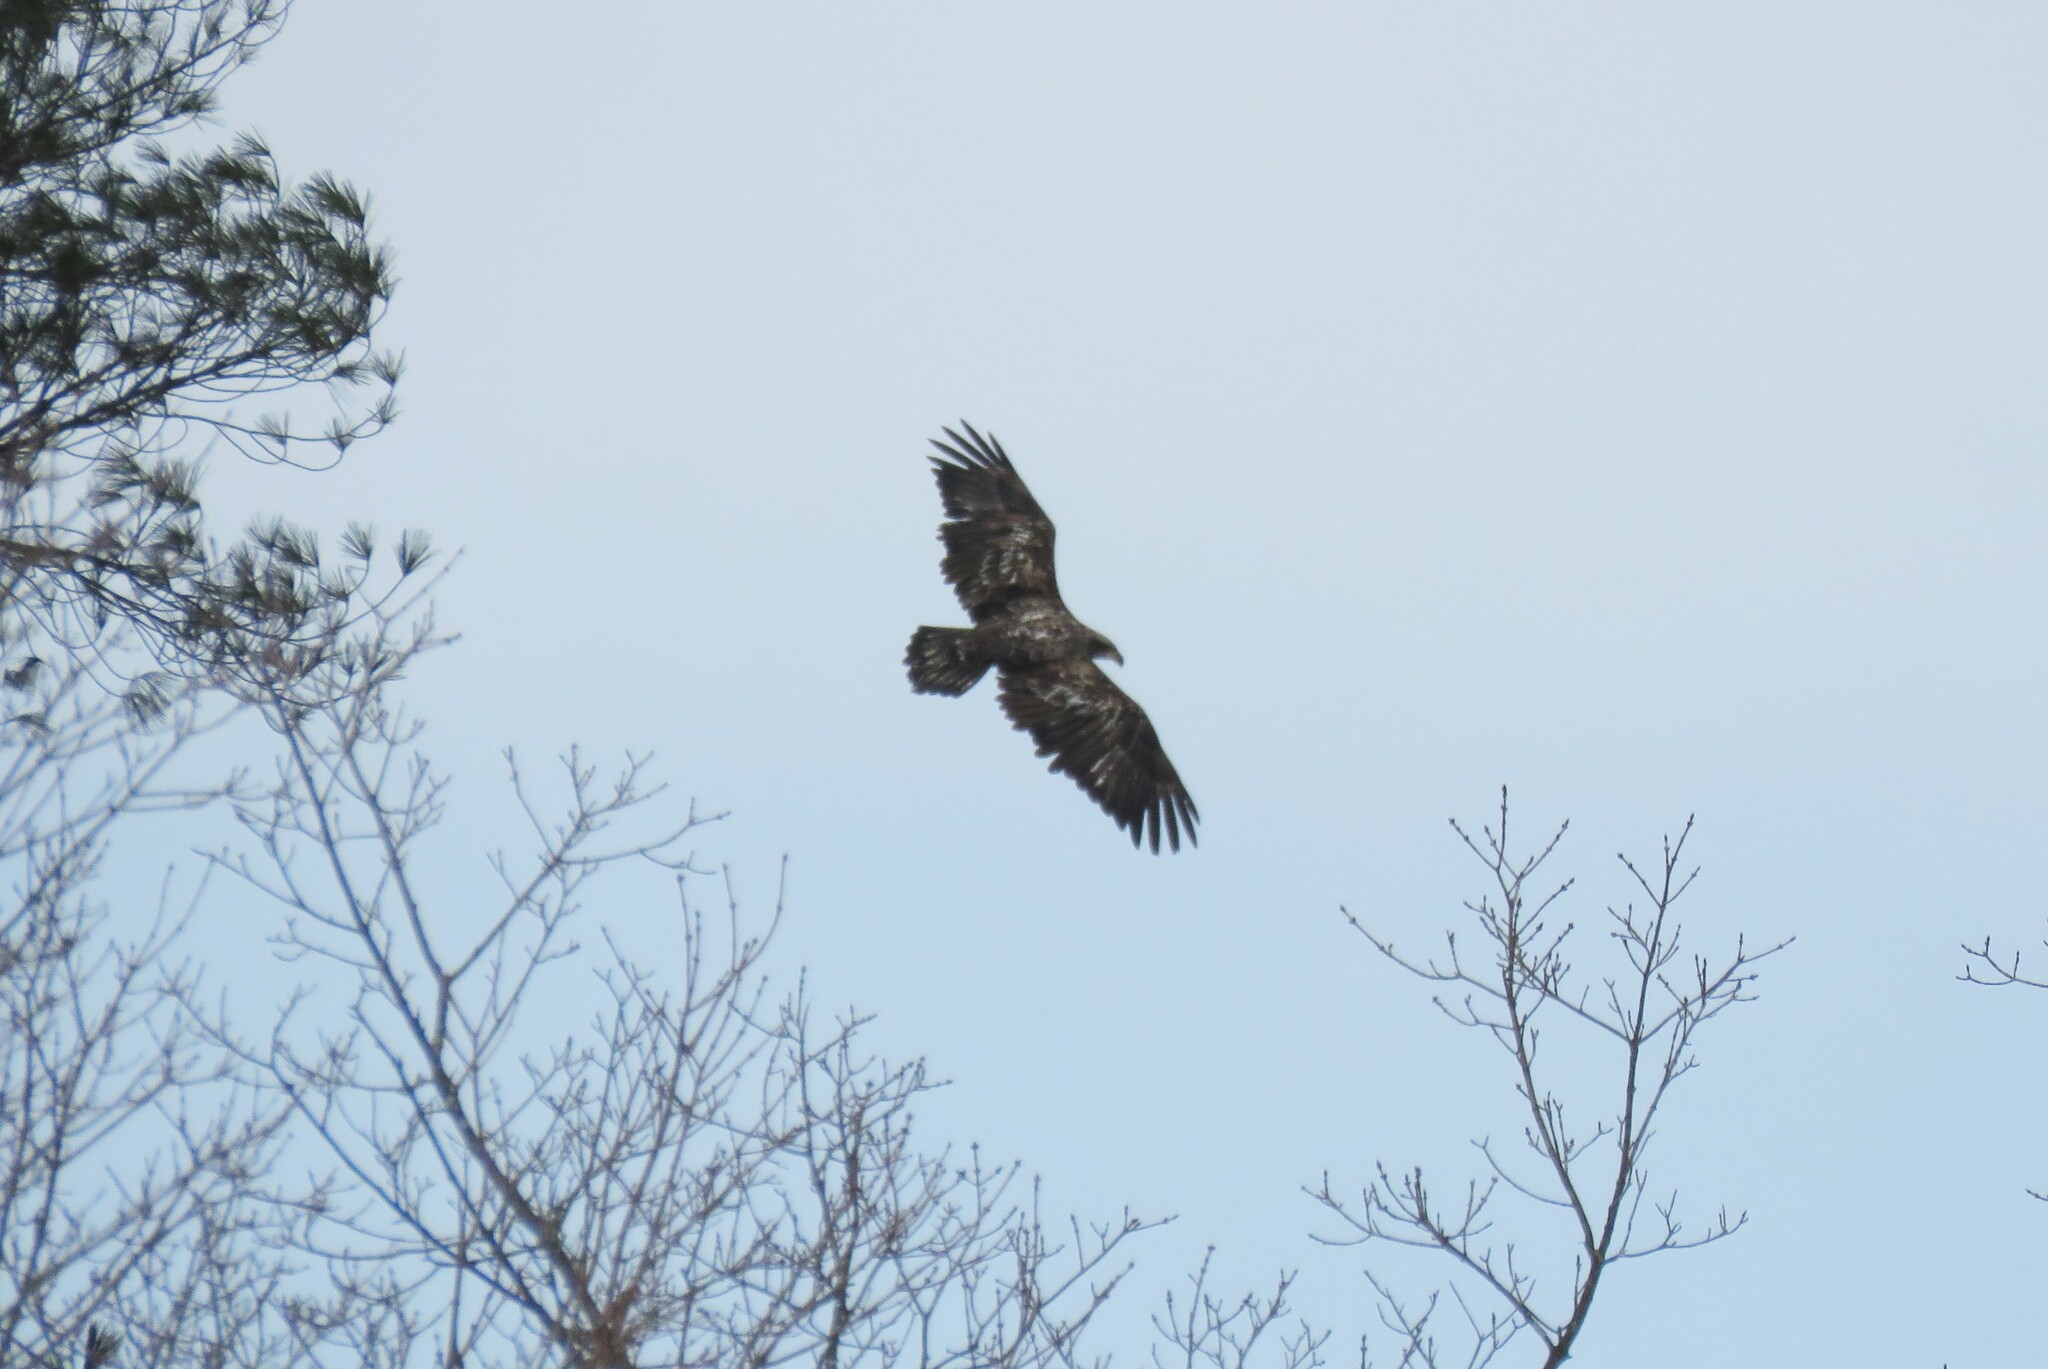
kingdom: Animalia
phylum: Chordata
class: Aves
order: Accipitriformes
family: Accipitridae
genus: Haliaeetus
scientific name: Haliaeetus leucocephalus
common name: Bald eagle
